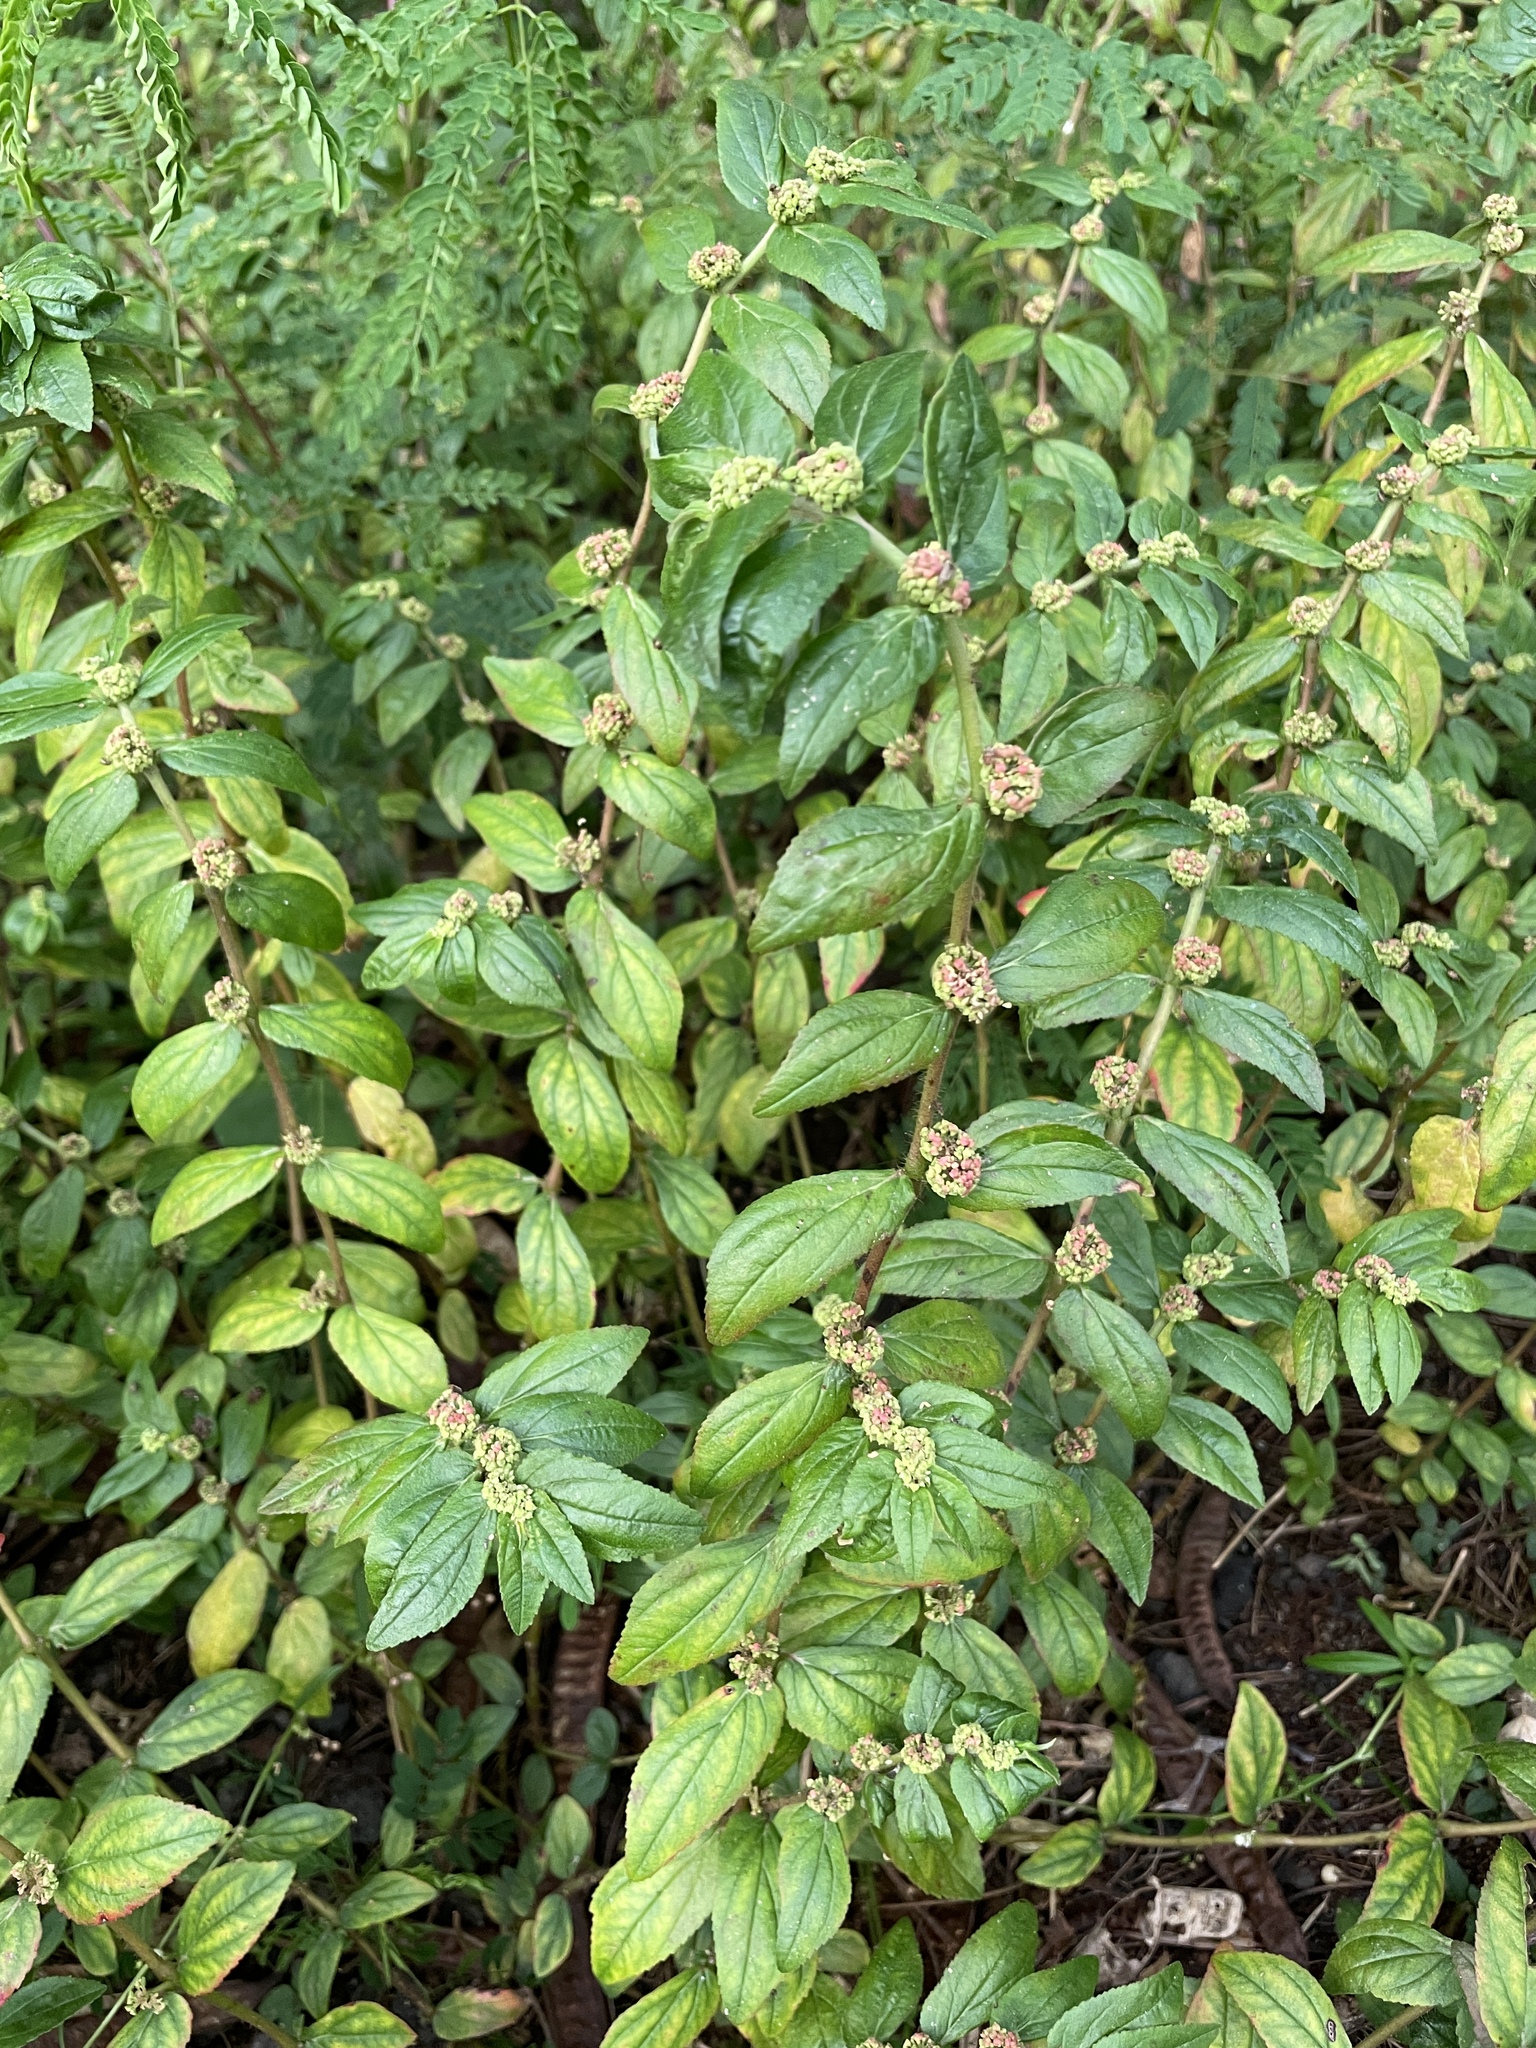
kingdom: Plantae
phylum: Tracheophyta
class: Magnoliopsida
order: Malpighiales
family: Euphorbiaceae
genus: Euphorbia
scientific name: Euphorbia hirta
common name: Pillpod sandmat
